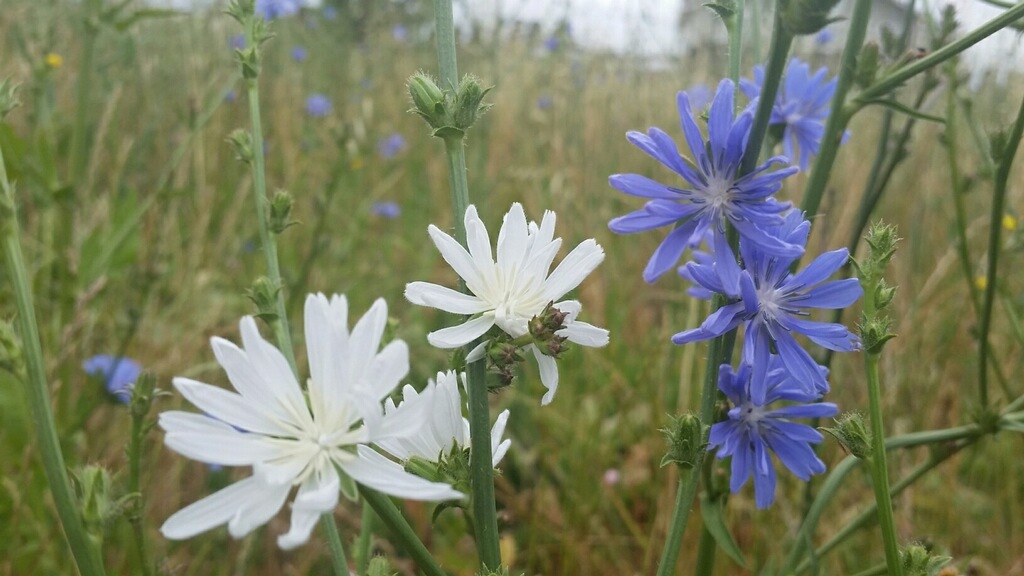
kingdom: Plantae
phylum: Tracheophyta
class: Magnoliopsida
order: Asterales
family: Asteraceae
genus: Cichorium
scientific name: Cichorium intybus
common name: Chicory
